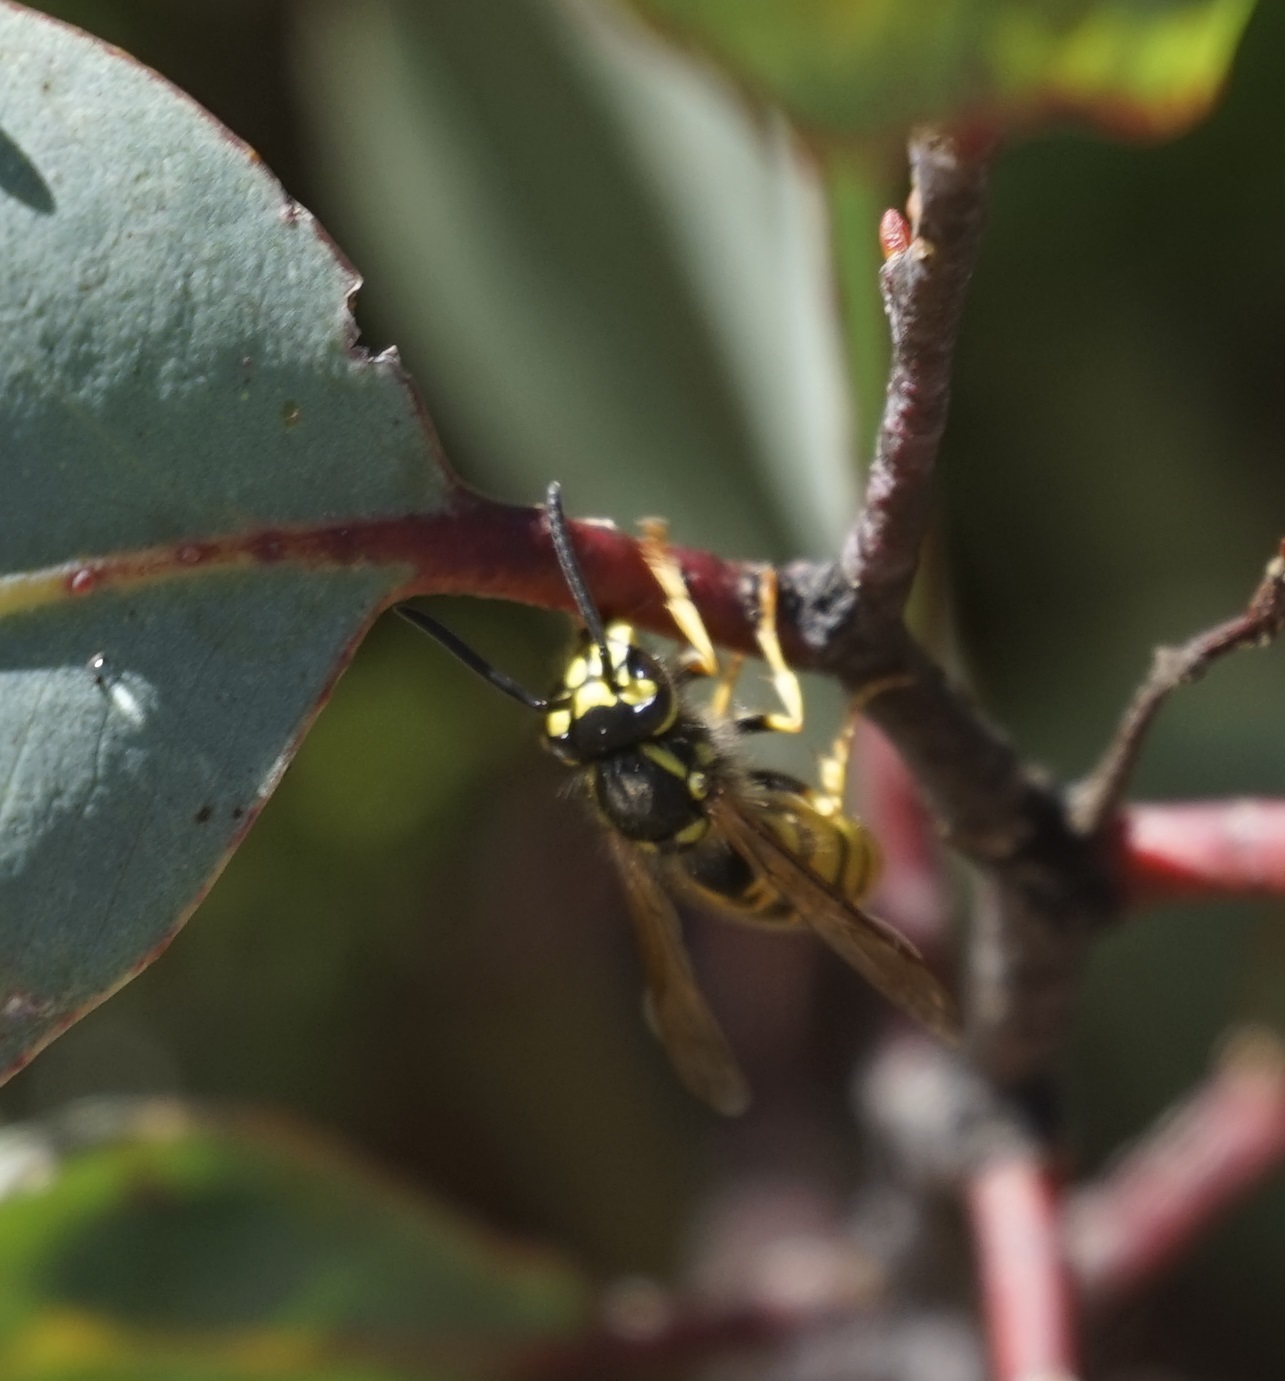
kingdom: Animalia
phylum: Arthropoda
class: Insecta
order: Hymenoptera
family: Vespidae
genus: Vespula
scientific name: Vespula germanica
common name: German wasp
